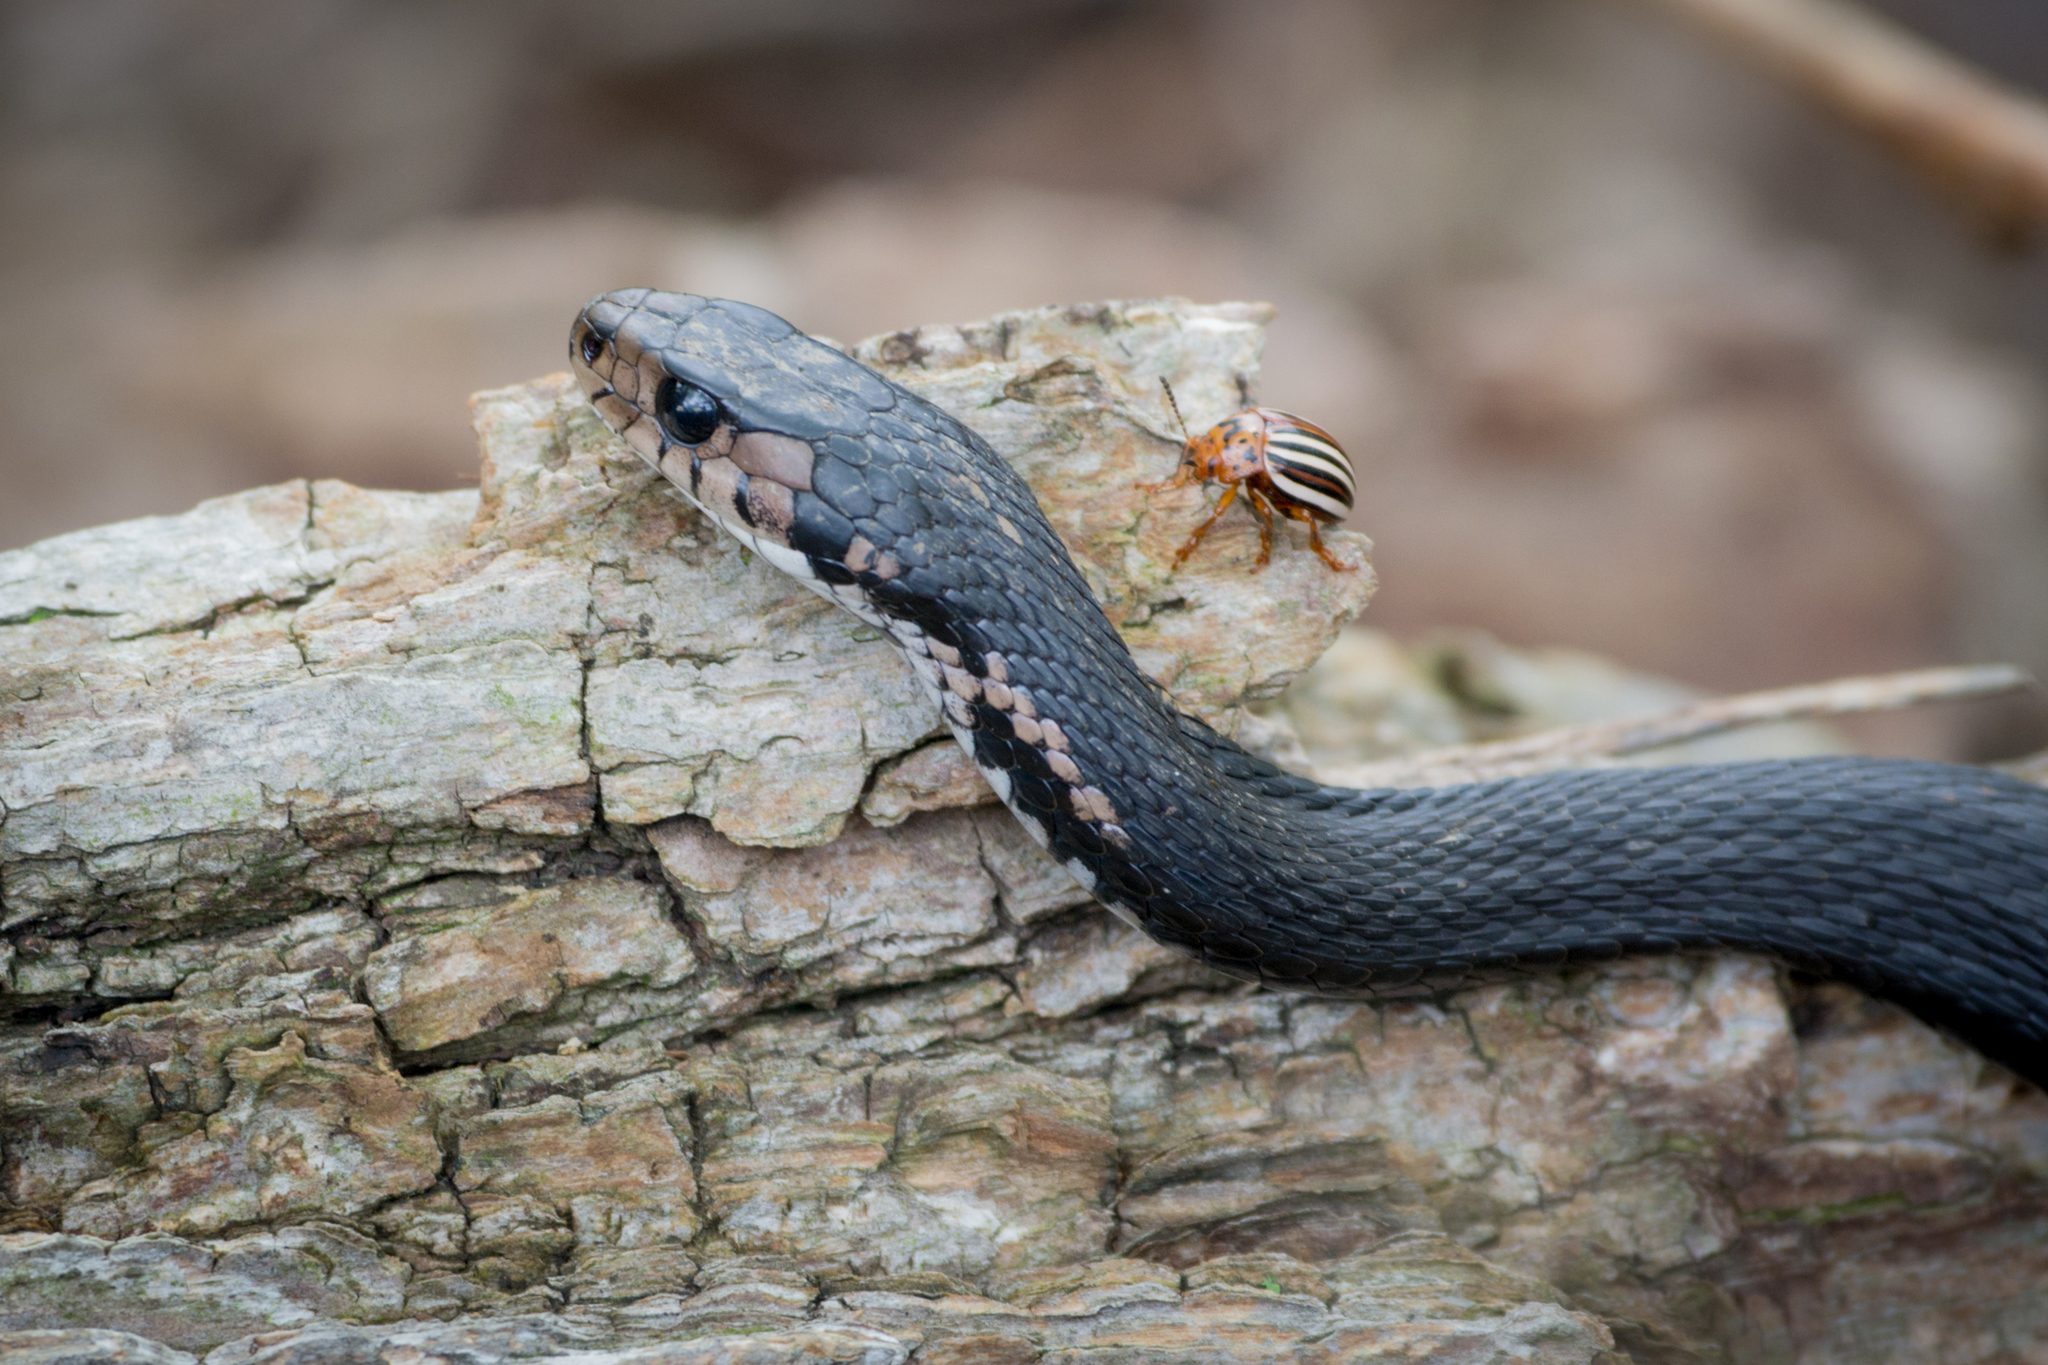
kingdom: Animalia
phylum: Chordata
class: Squamata
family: Colubridae
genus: Thamnophis
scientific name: Thamnophis sirtalis
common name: Common garter snake
